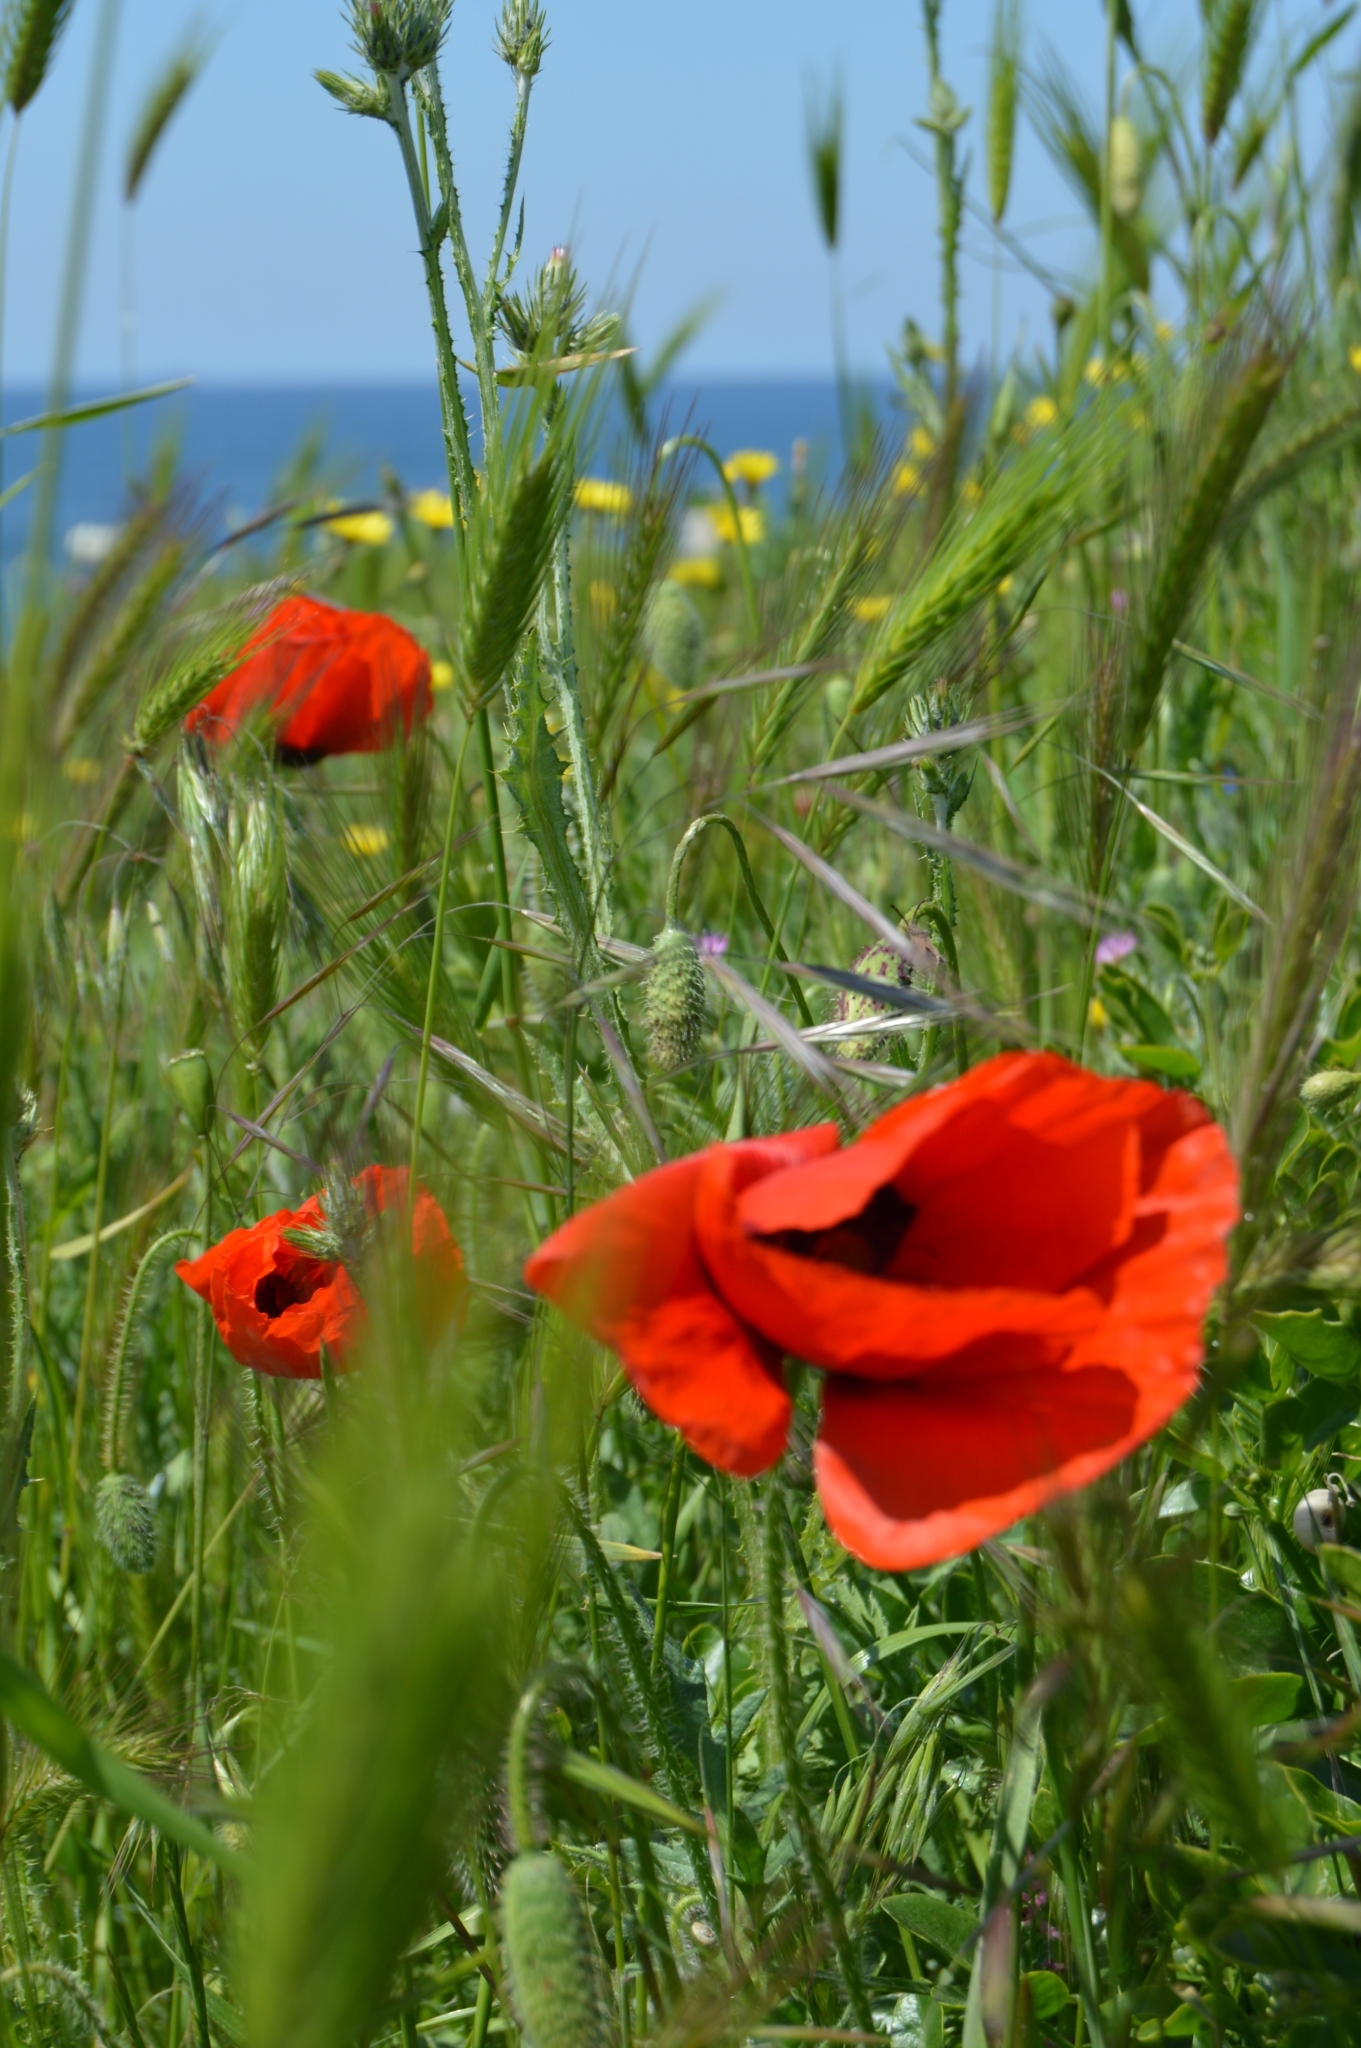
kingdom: Plantae
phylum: Tracheophyta
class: Magnoliopsida
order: Ranunculales
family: Papaveraceae
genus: Papaver
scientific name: Papaver rhoeas
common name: Corn poppy
